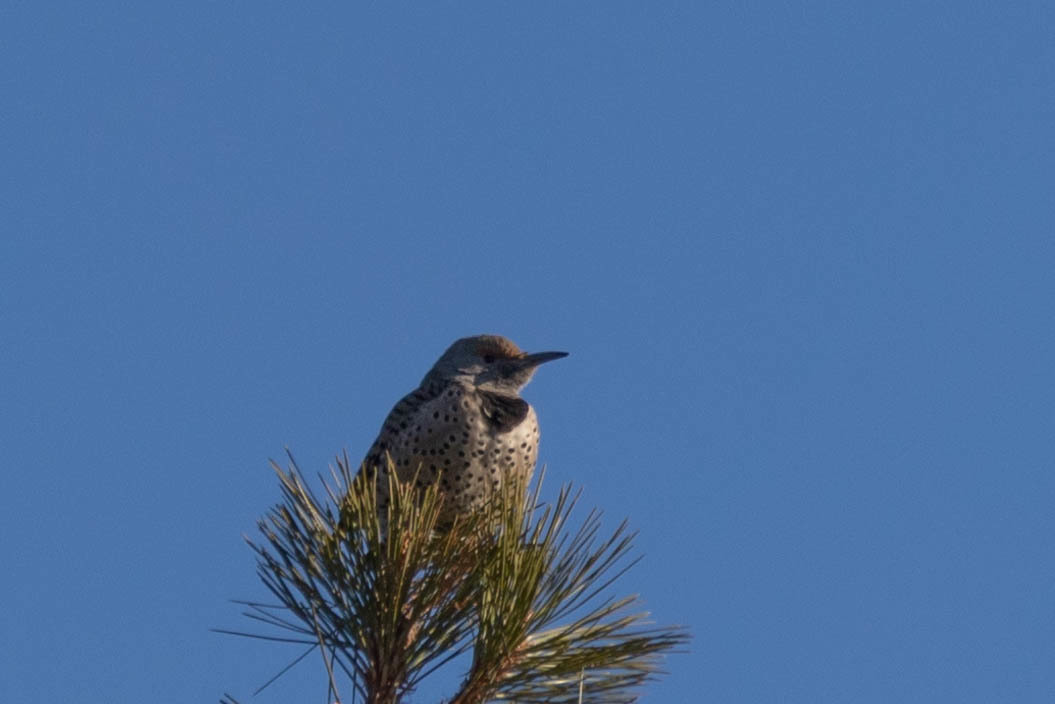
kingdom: Animalia
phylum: Chordata
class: Aves
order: Piciformes
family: Picidae
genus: Colaptes
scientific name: Colaptes auratus
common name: Northern flicker
